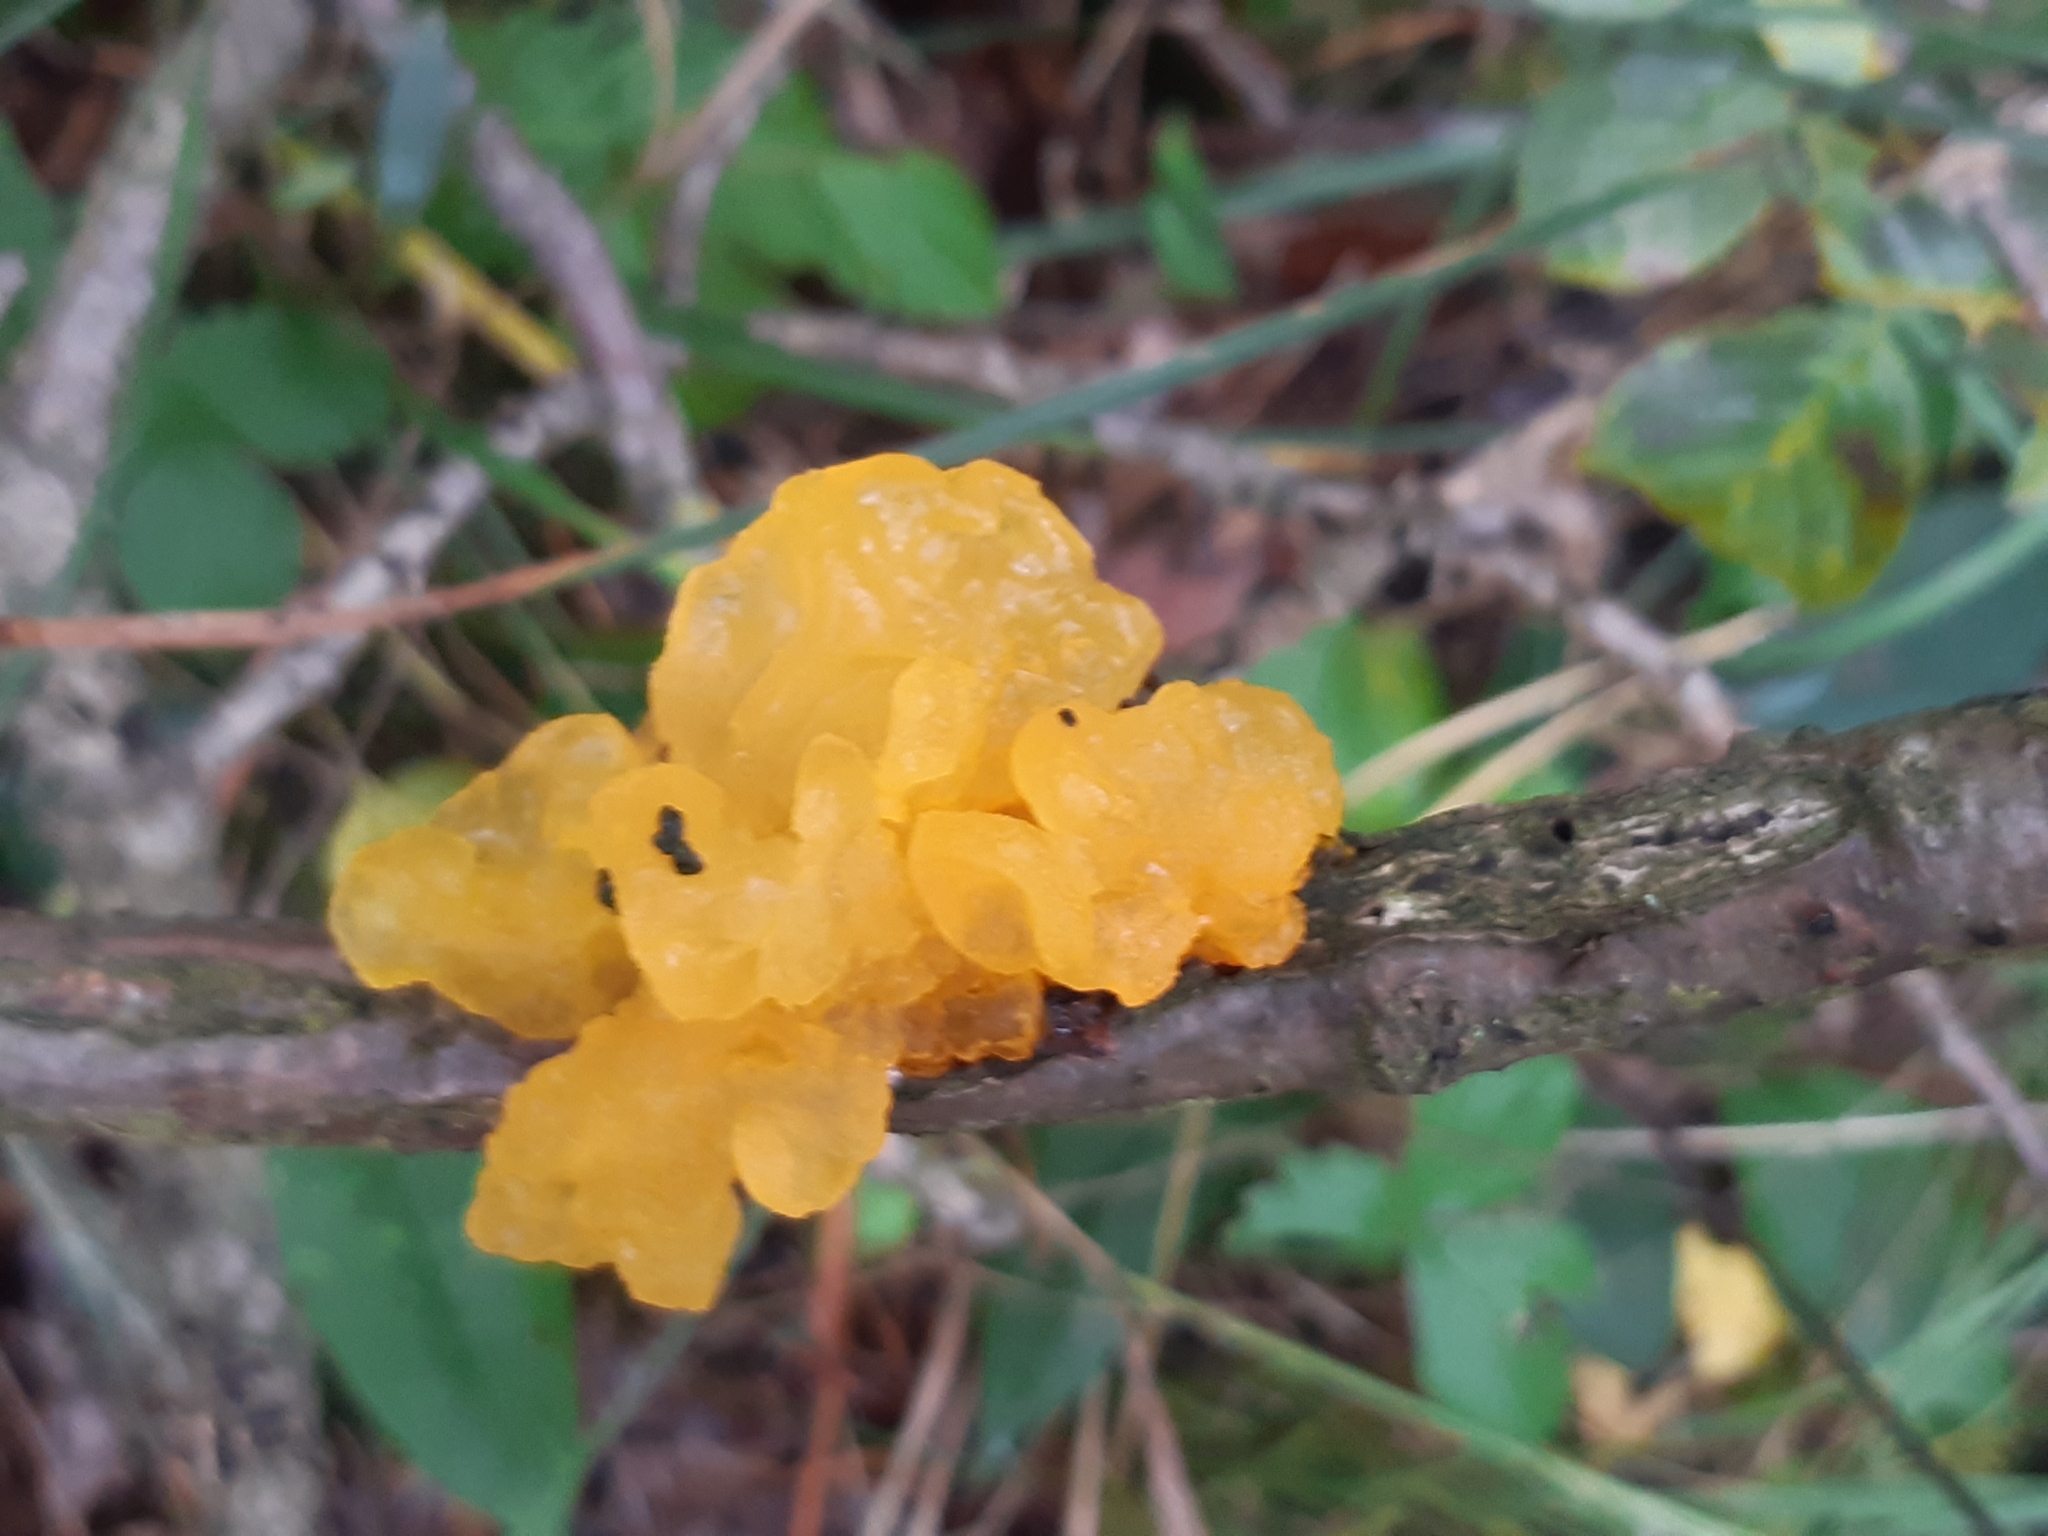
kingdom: Fungi
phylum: Basidiomycota
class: Tremellomycetes
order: Tremellales
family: Tremellaceae
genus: Tremella
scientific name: Tremella mesenterica
